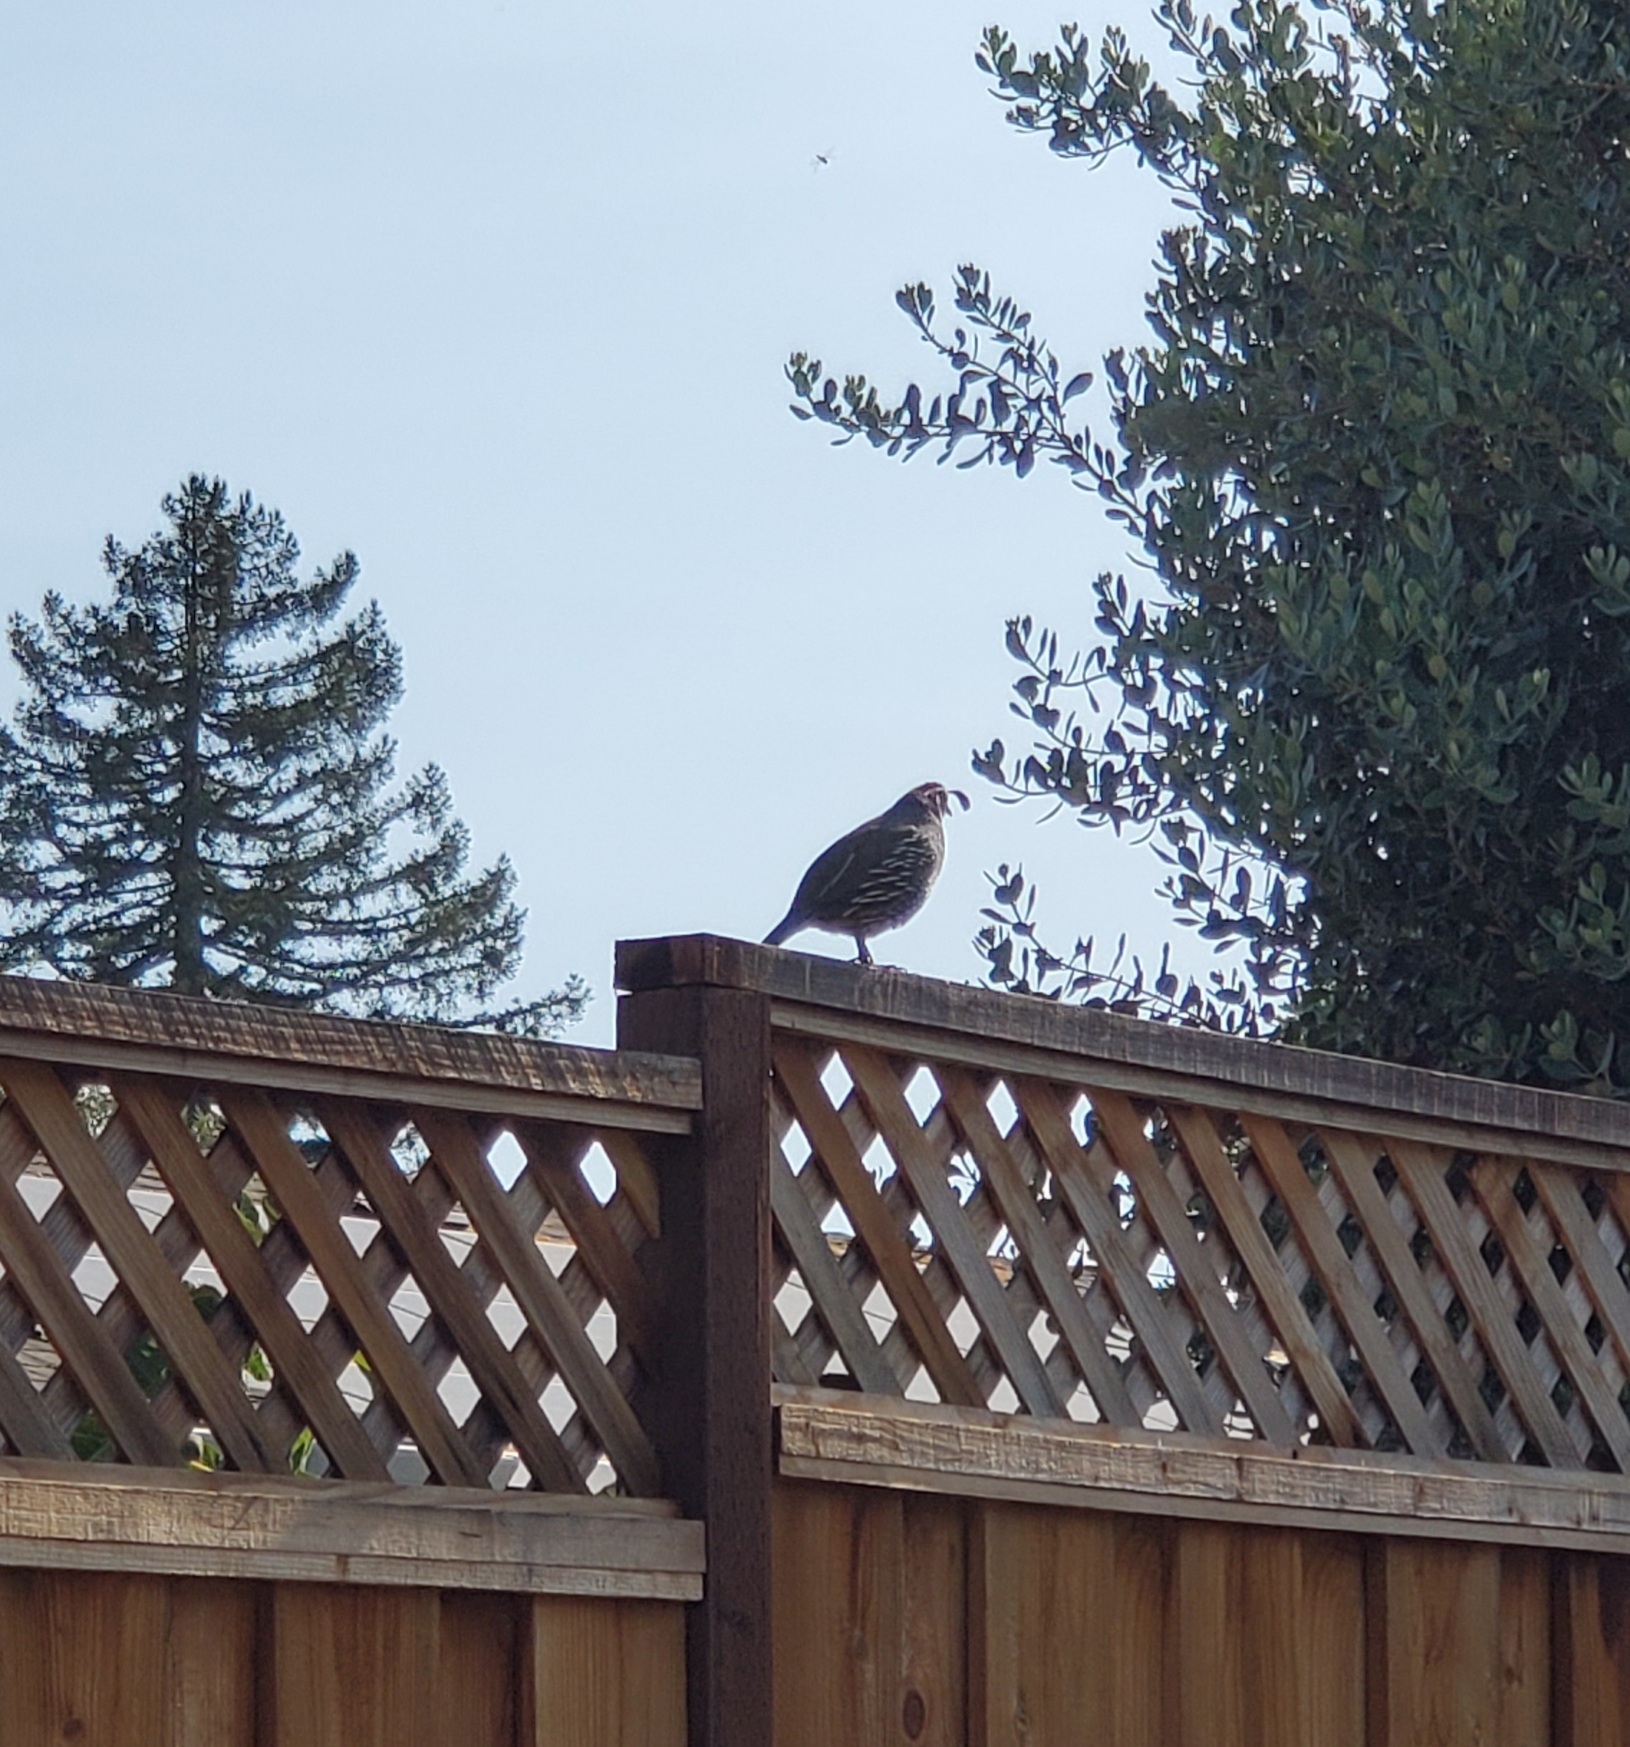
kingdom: Animalia
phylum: Chordata
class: Aves
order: Galliformes
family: Odontophoridae
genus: Callipepla
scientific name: Callipepla californica
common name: California quail
